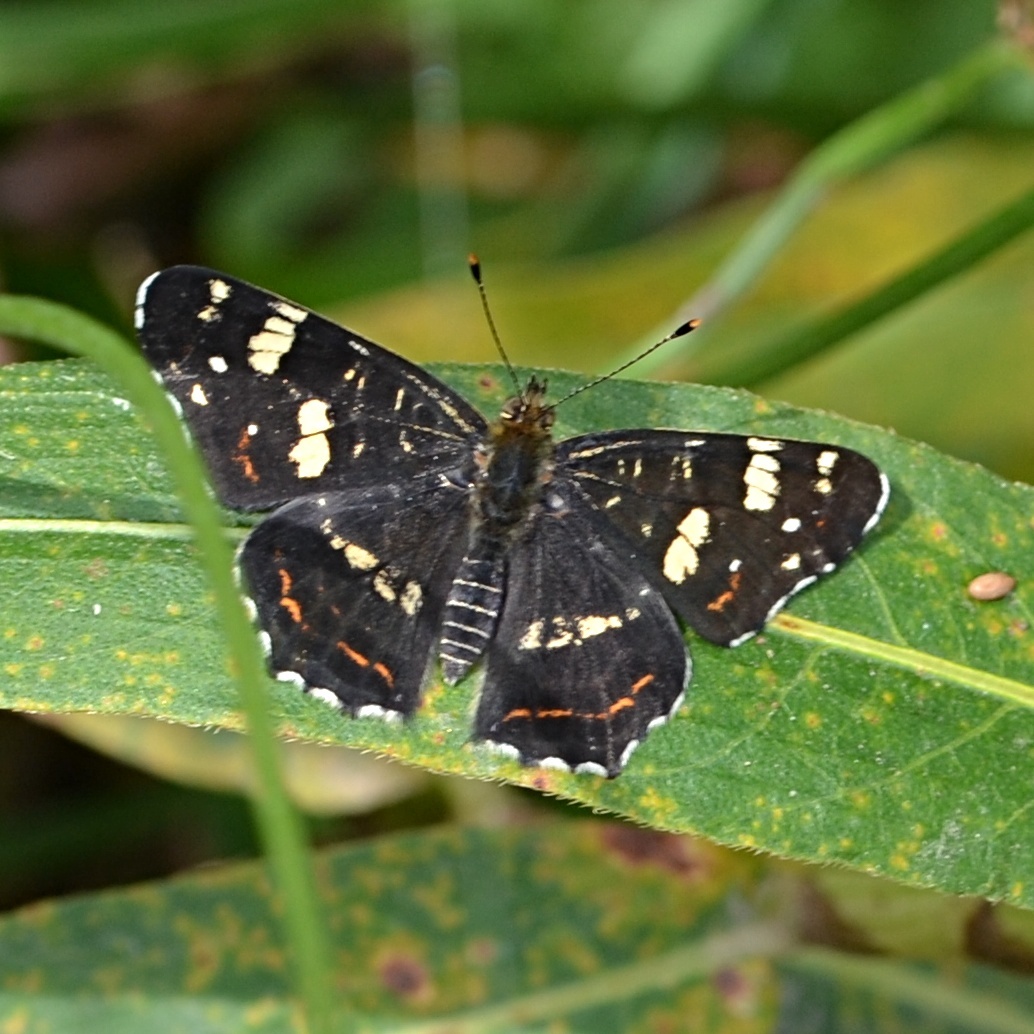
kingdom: Animalia
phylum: Arthropoda
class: Insecta
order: Lepidoptera
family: Nymphalidae
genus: Araschnia
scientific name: Araschnia levana
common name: Map butterfly
